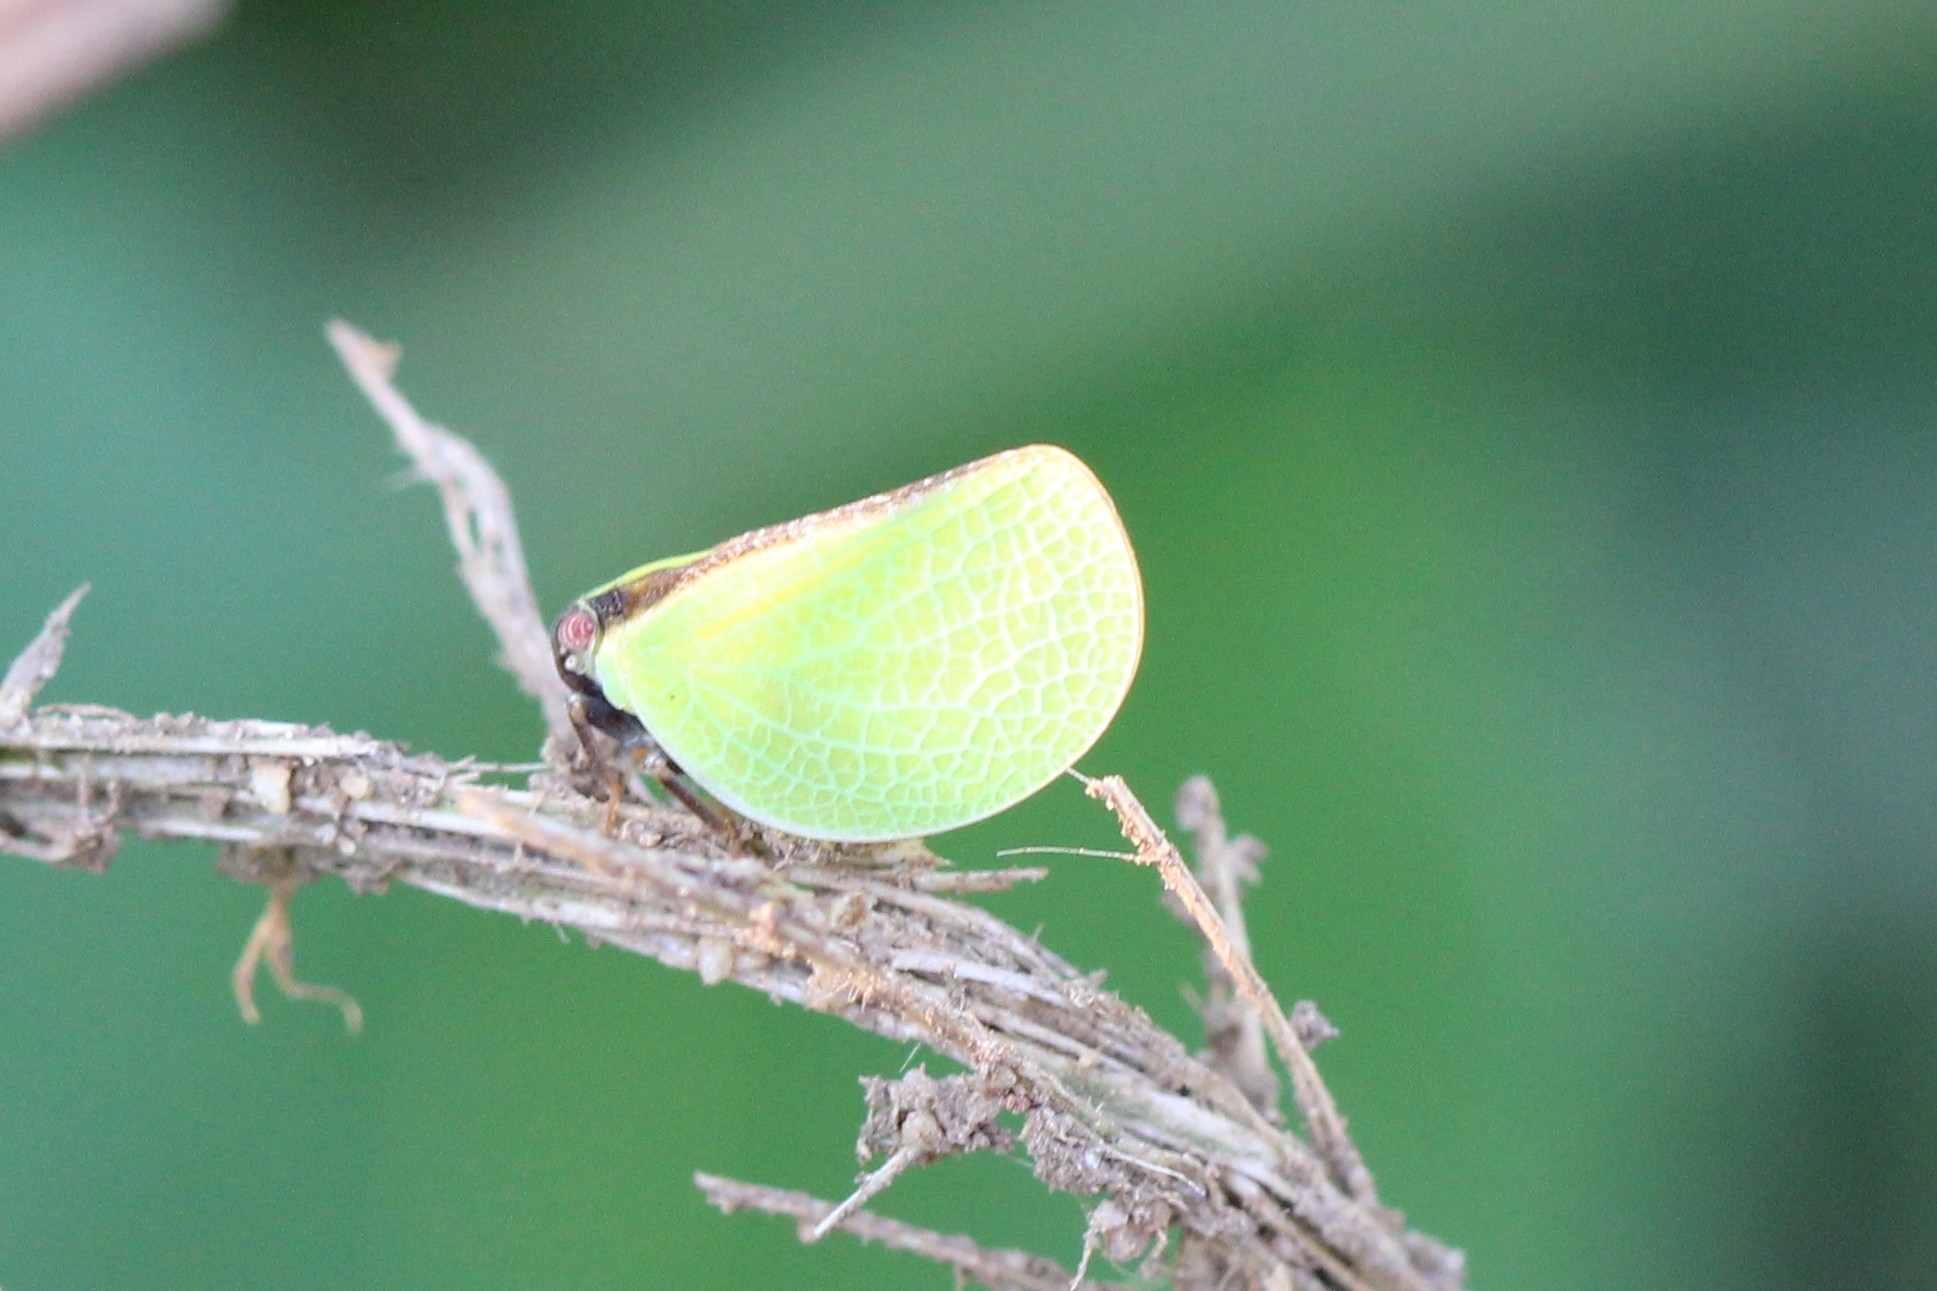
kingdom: Animalia
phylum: Arthropoda
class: Insecta
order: Hemiptera
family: Acanaloniidae
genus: Acanalonia
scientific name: Acanalonia bivittata
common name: Two-striped planthopper
